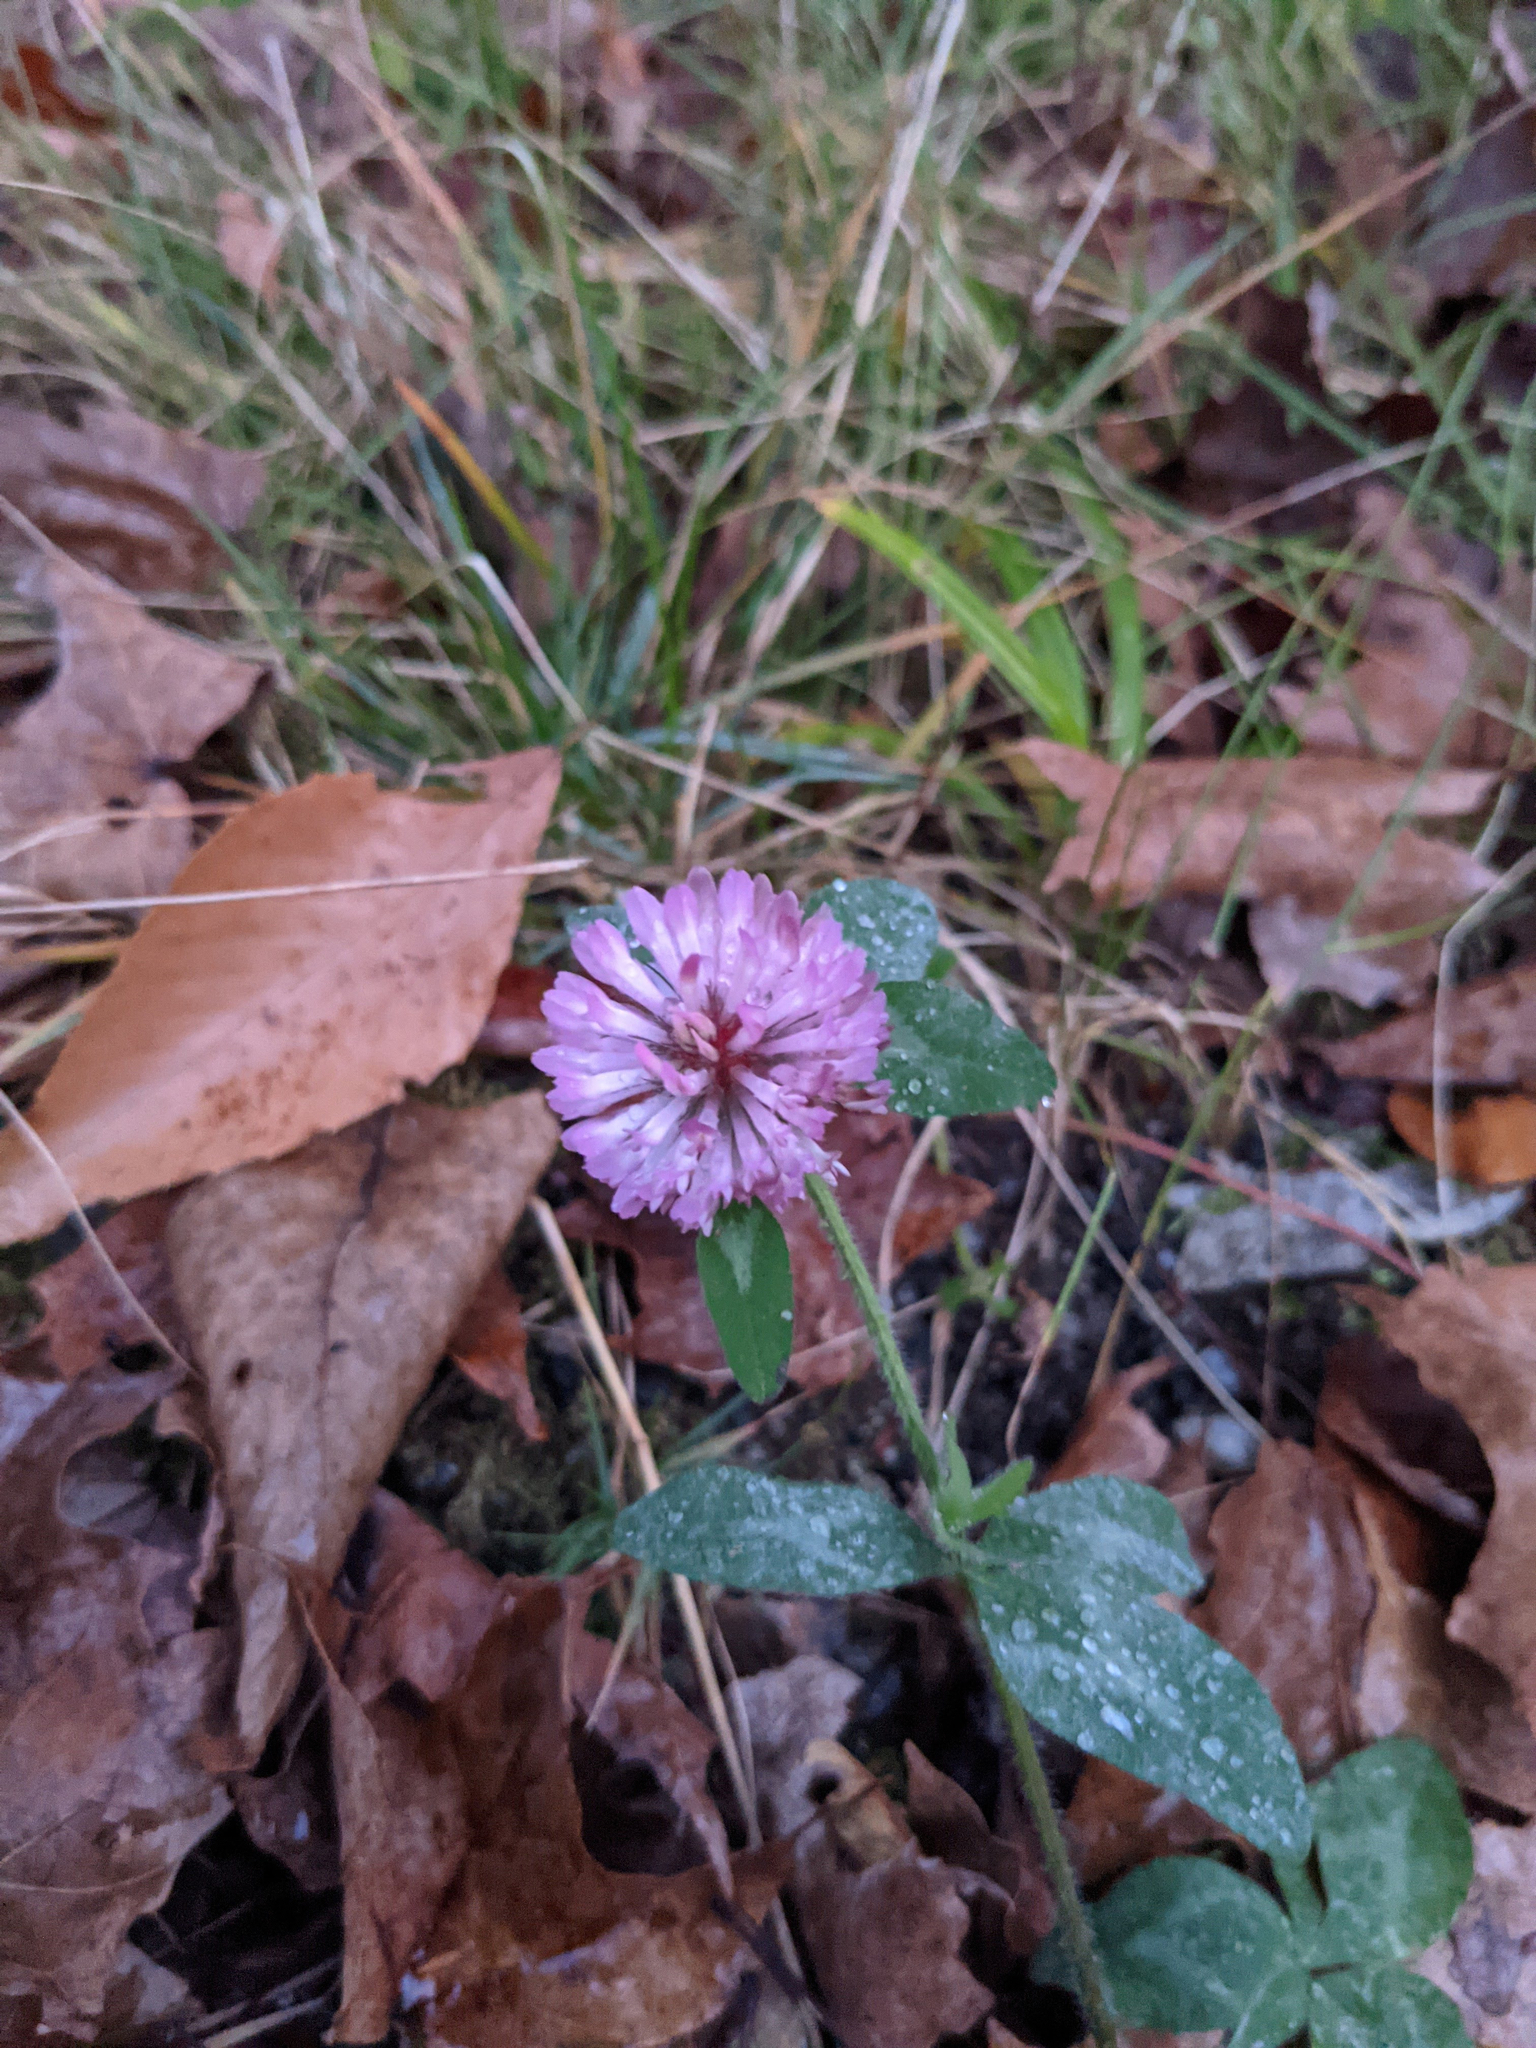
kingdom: Plantae
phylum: Tracheophyta
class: Magnoliopsida
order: Fabales
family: Fabaceae
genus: Trifolium
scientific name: Trifolium pratense
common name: Red clover
